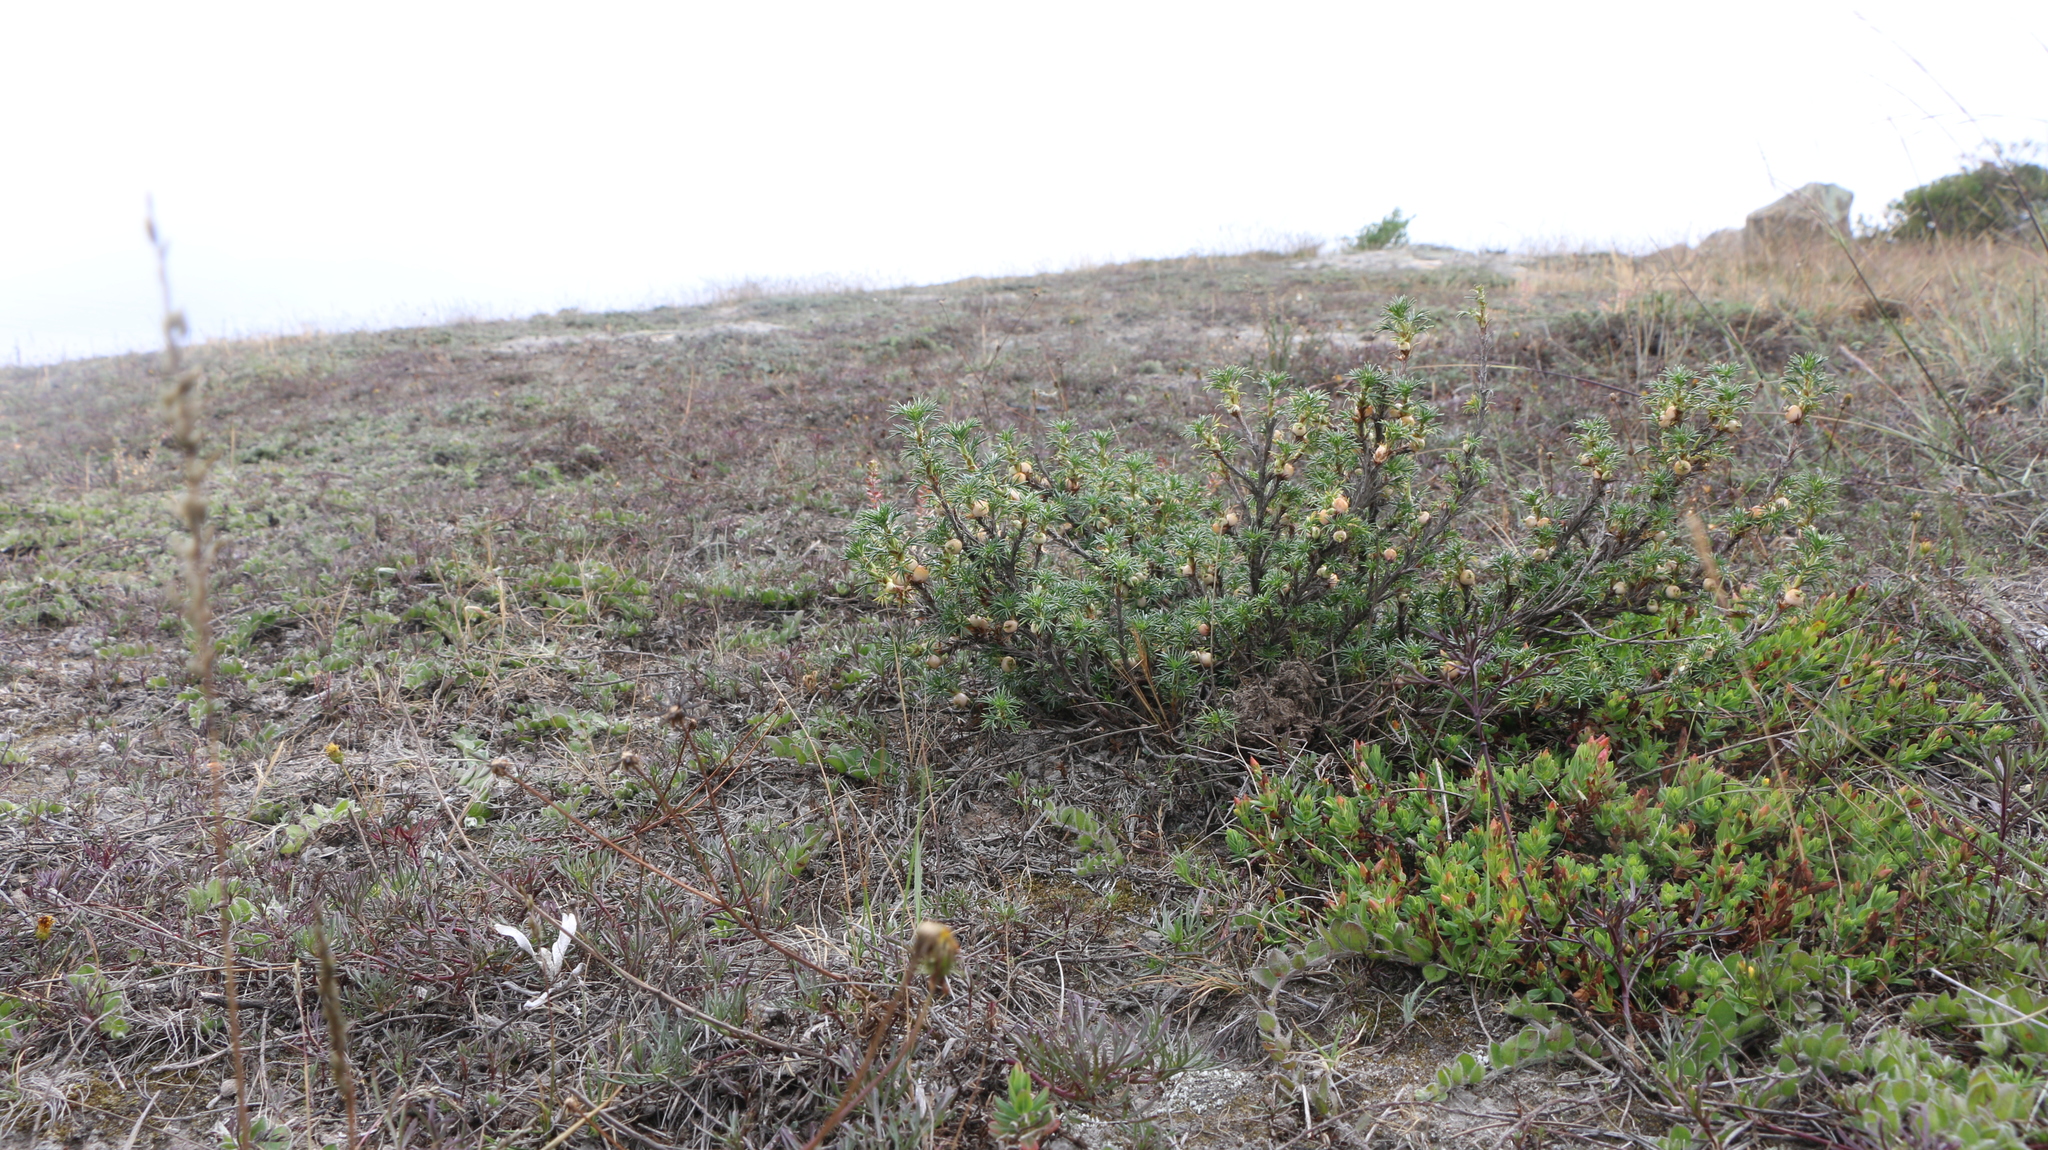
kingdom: Plantae
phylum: Tracheophyta
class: Magnoliopsida
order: Rosales
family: Rosaceae
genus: Margyricarpus
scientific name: Margyricarpus pinnatus
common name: Pearlfruit
